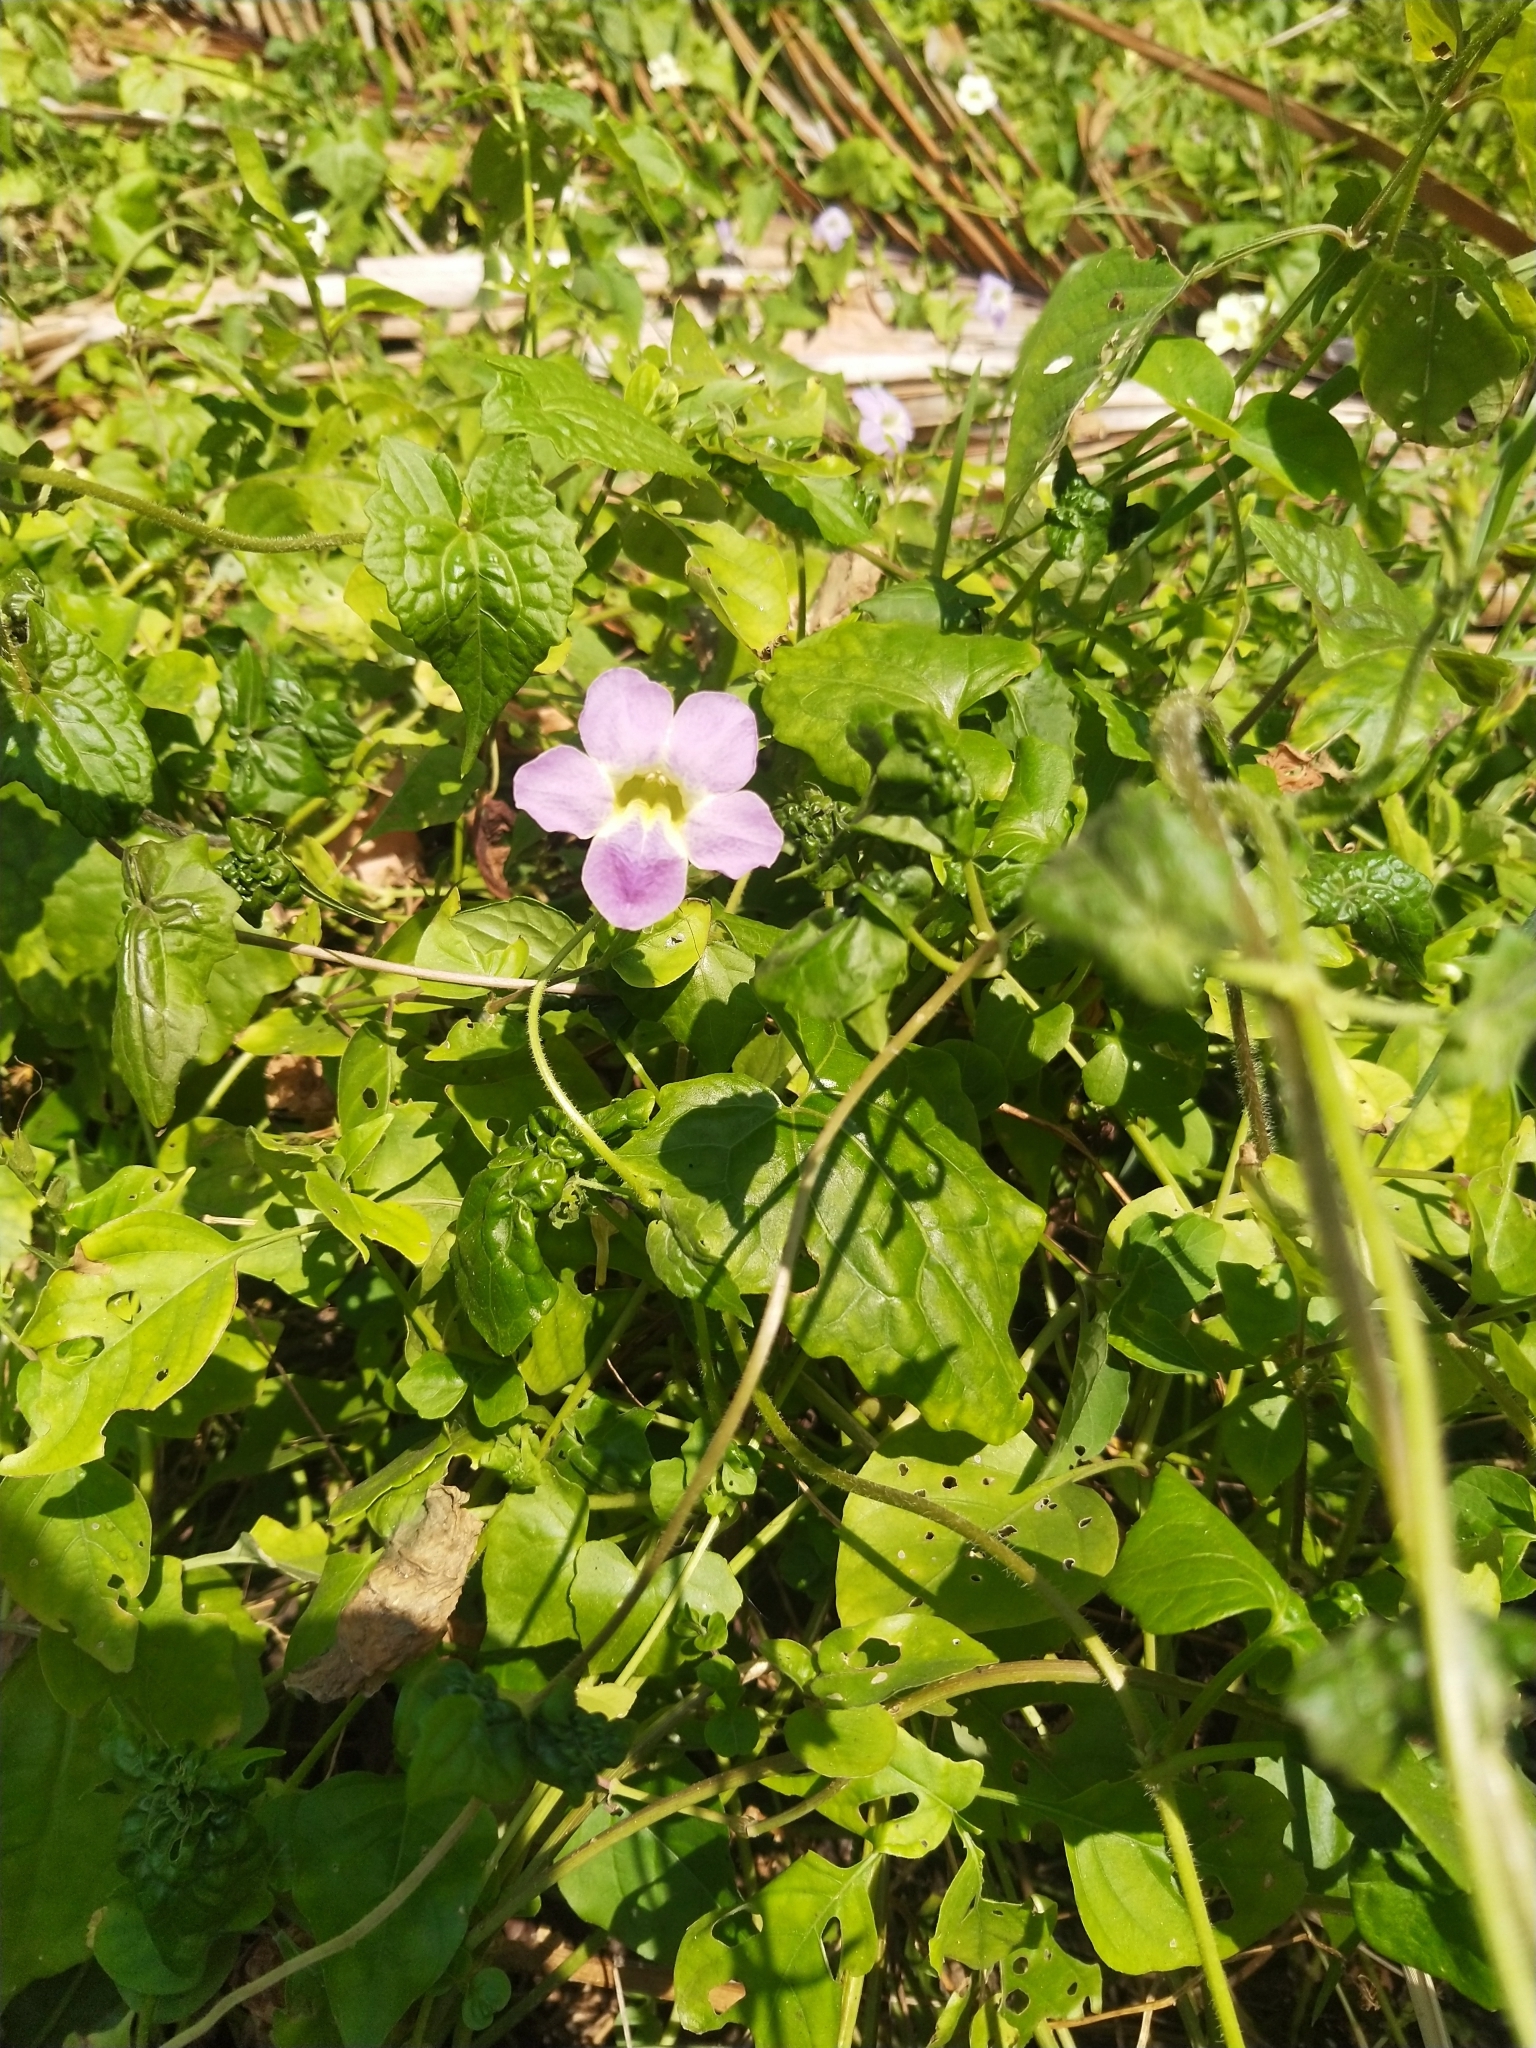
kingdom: Plantae
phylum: Tracheophyta
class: Magnoliopsida
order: Lamiales
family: Acanthaceae
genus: Asystasia
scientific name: Asystasia gangetica
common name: Chinese violet
